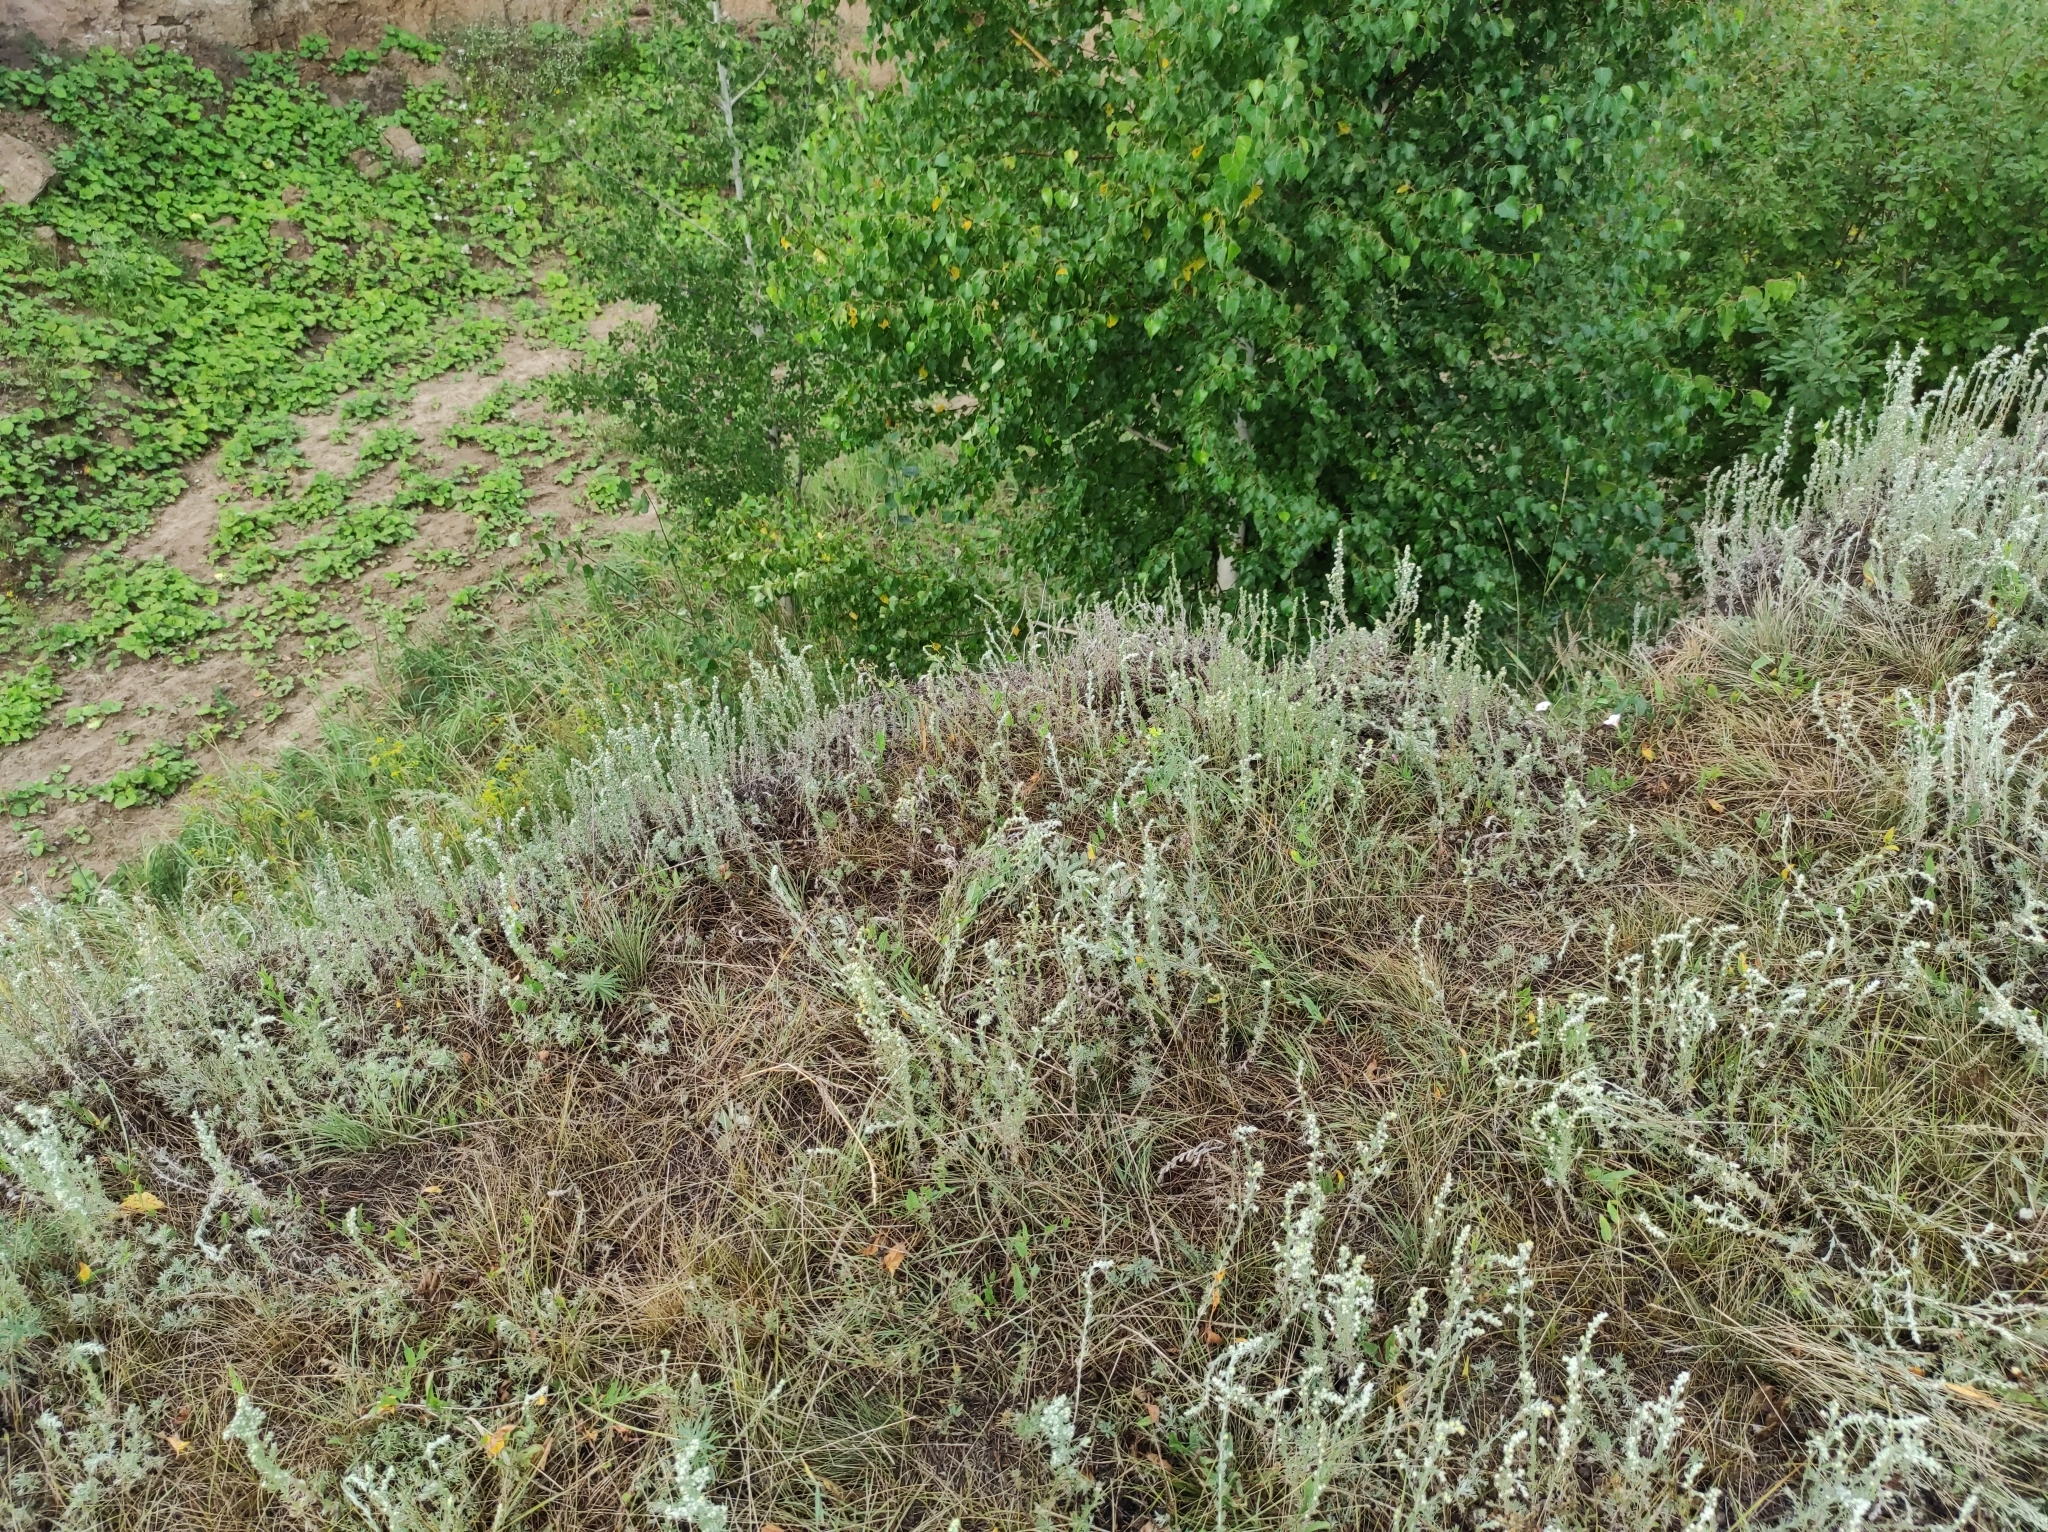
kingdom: Plantae
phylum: Tracheophyta
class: Magnoliopsida
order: Asterales
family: Asteraceae
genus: Artemisia
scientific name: Artemisia frigida
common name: Prairie sagewort
